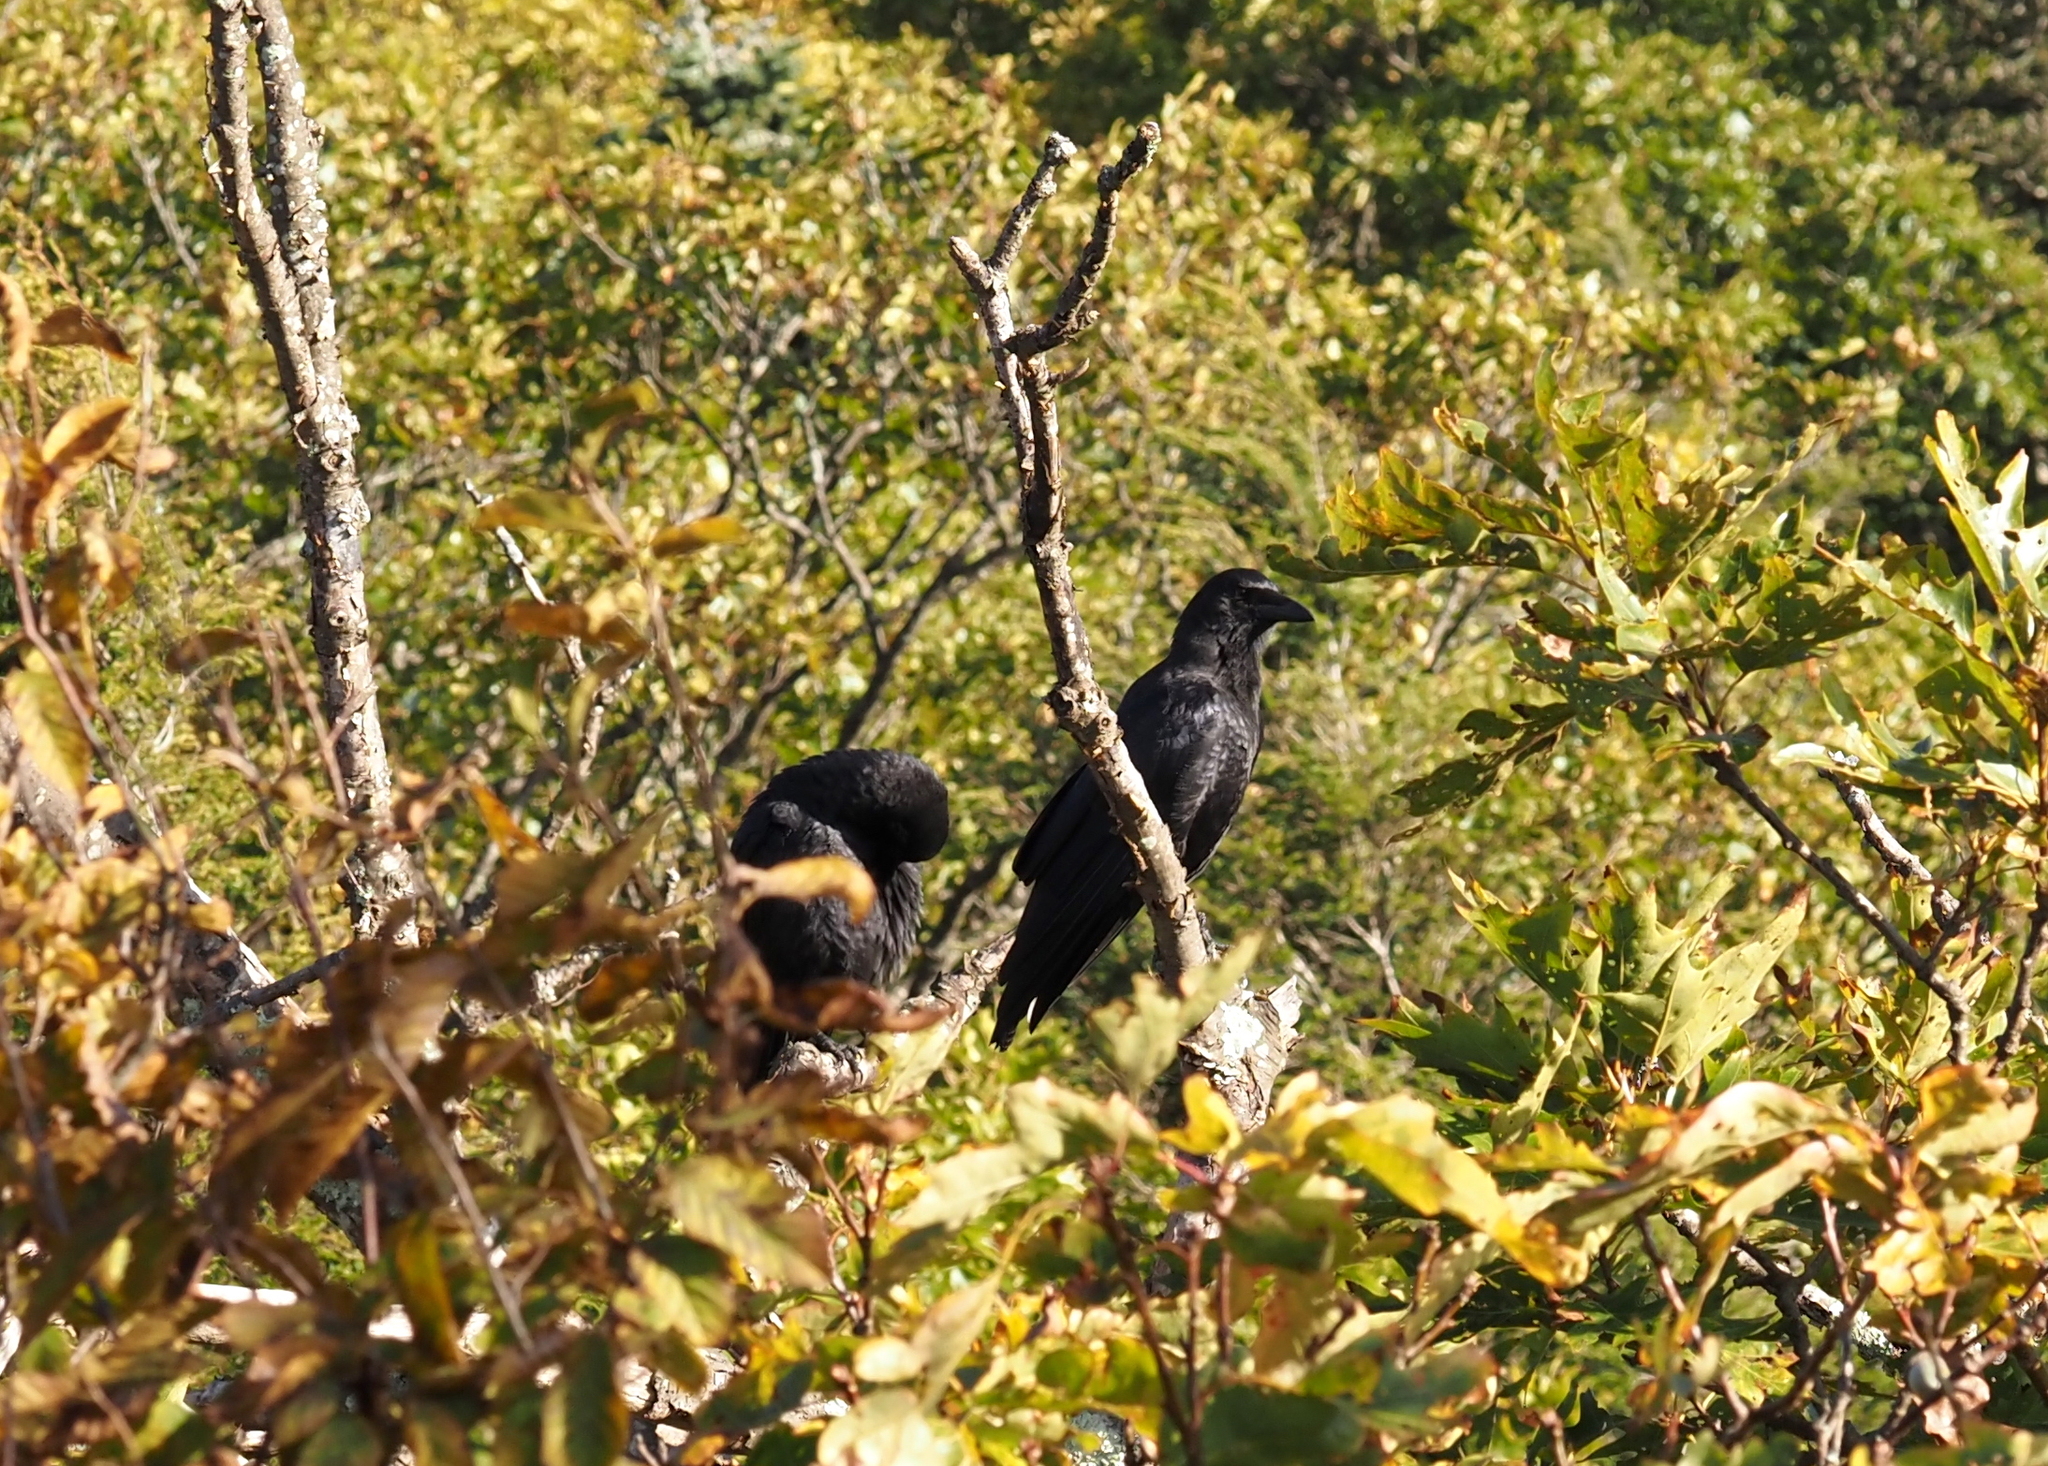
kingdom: Animalia
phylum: Chordata
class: Aves
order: Passeriformes
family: Corvidae
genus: Corvus
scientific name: Corvus corax
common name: Common raven
